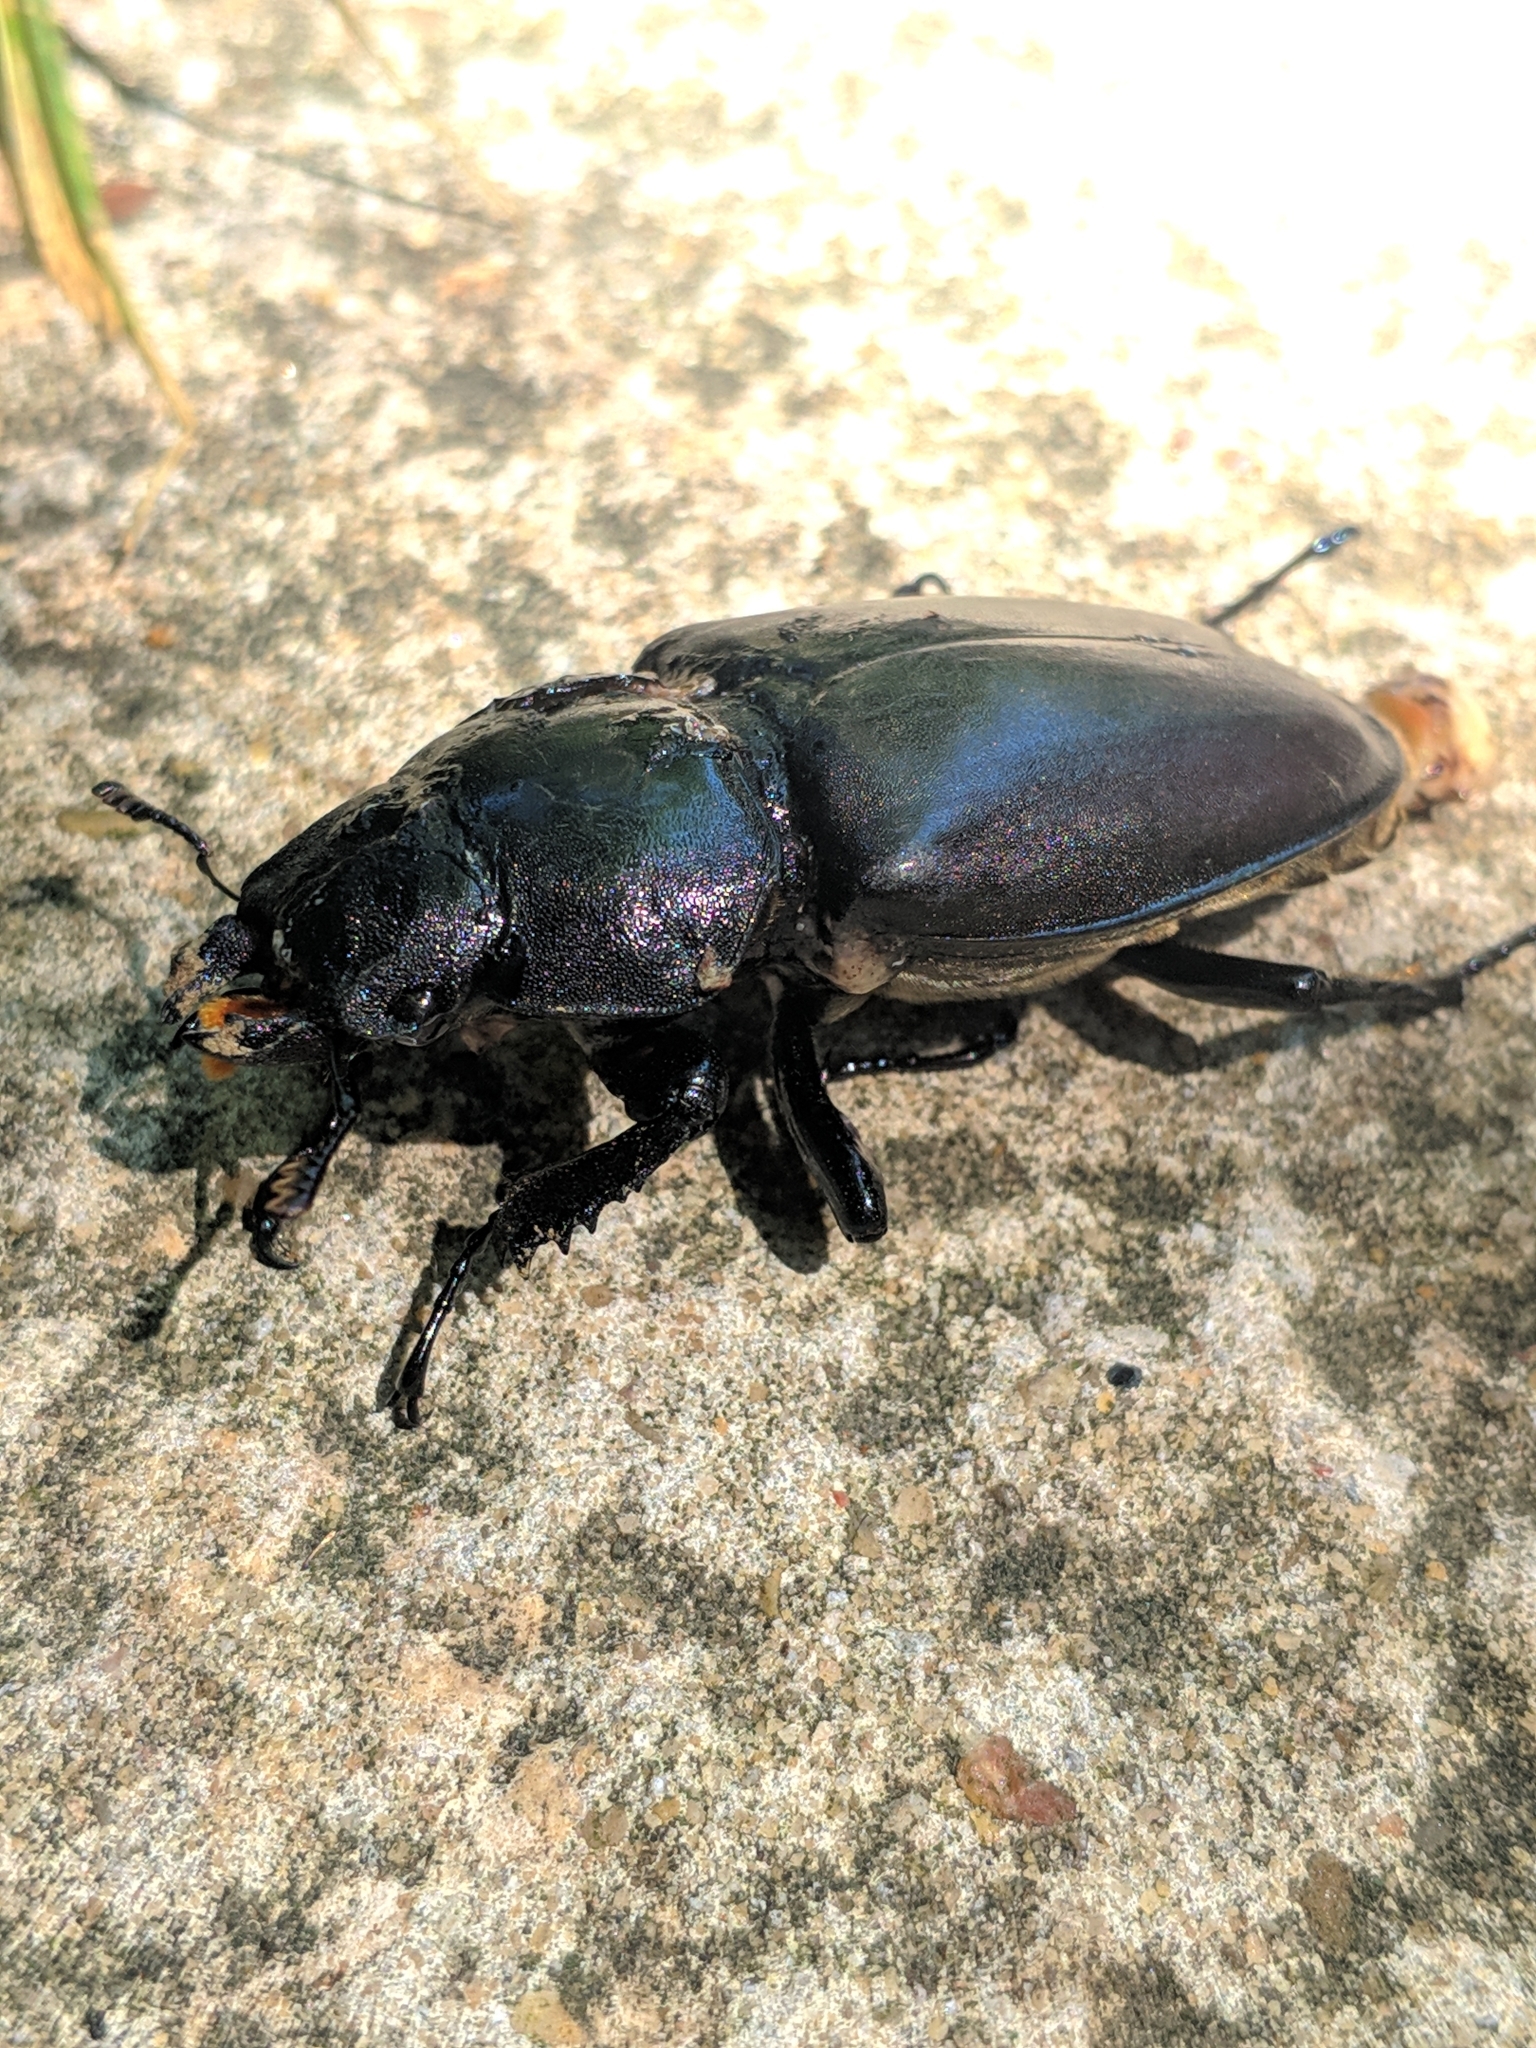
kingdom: Animalia
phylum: Arthropoda
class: Insecta
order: Coleoptera
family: Lucanidae
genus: Lucanus
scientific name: Lucanus cervus
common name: Stag beetle
